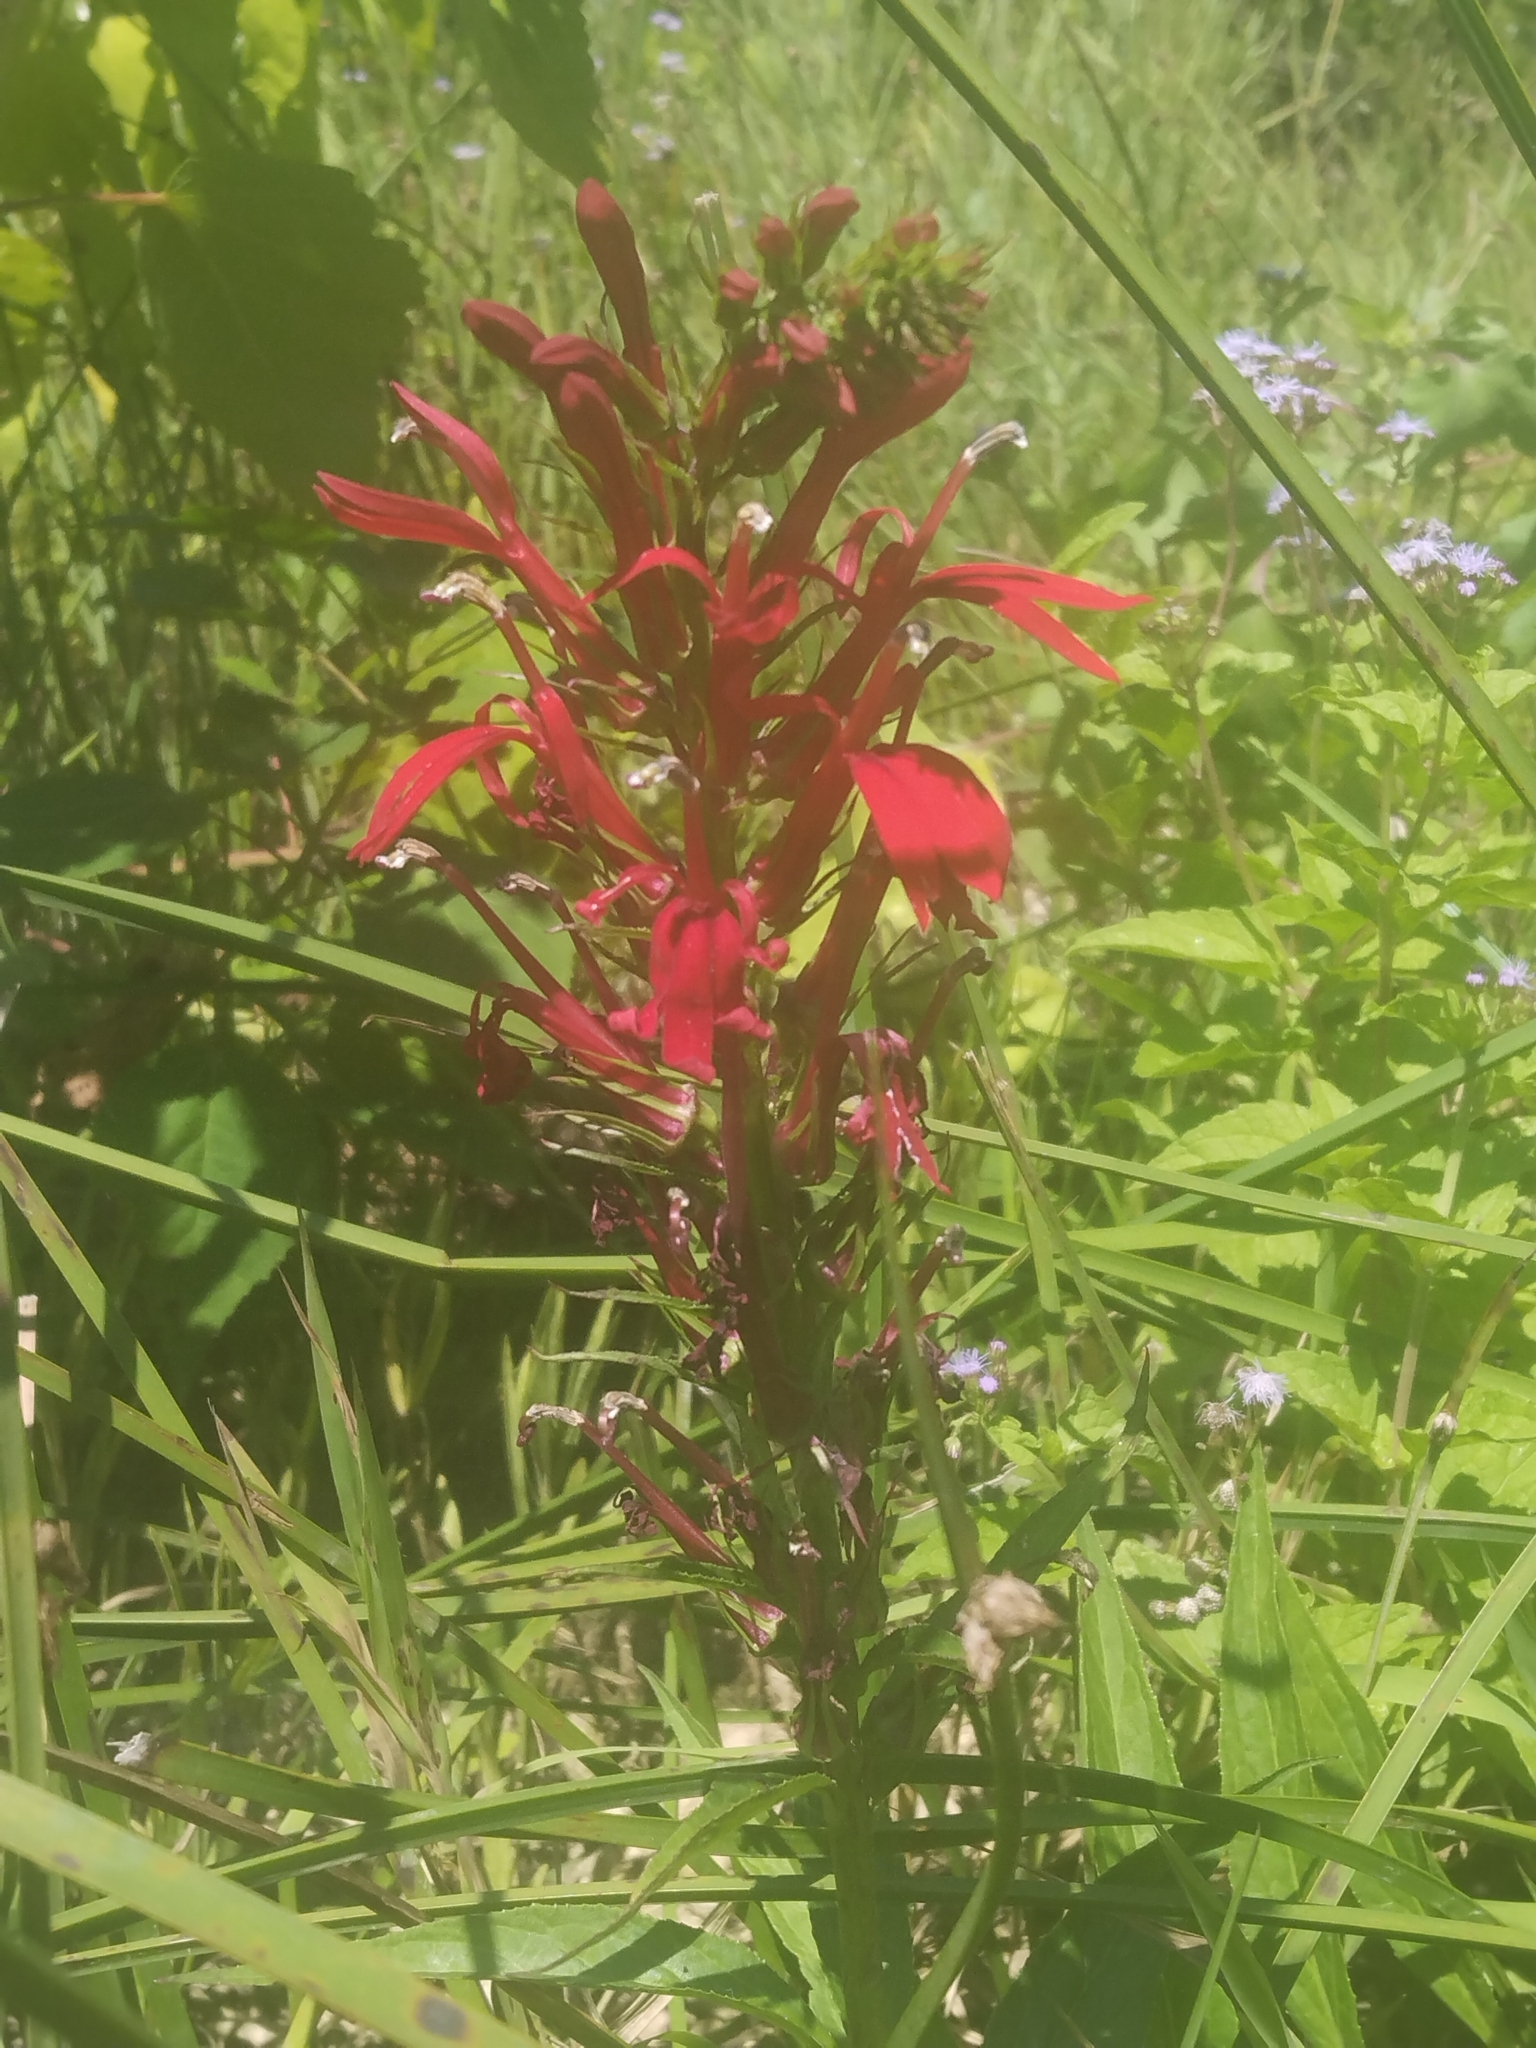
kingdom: Plantae
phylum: Tracheophyta
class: Magnoliopsida
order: Asterales
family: Campanulaceae
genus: Lobelia
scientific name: Lobelia cardinalis
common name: Cardinal flower
